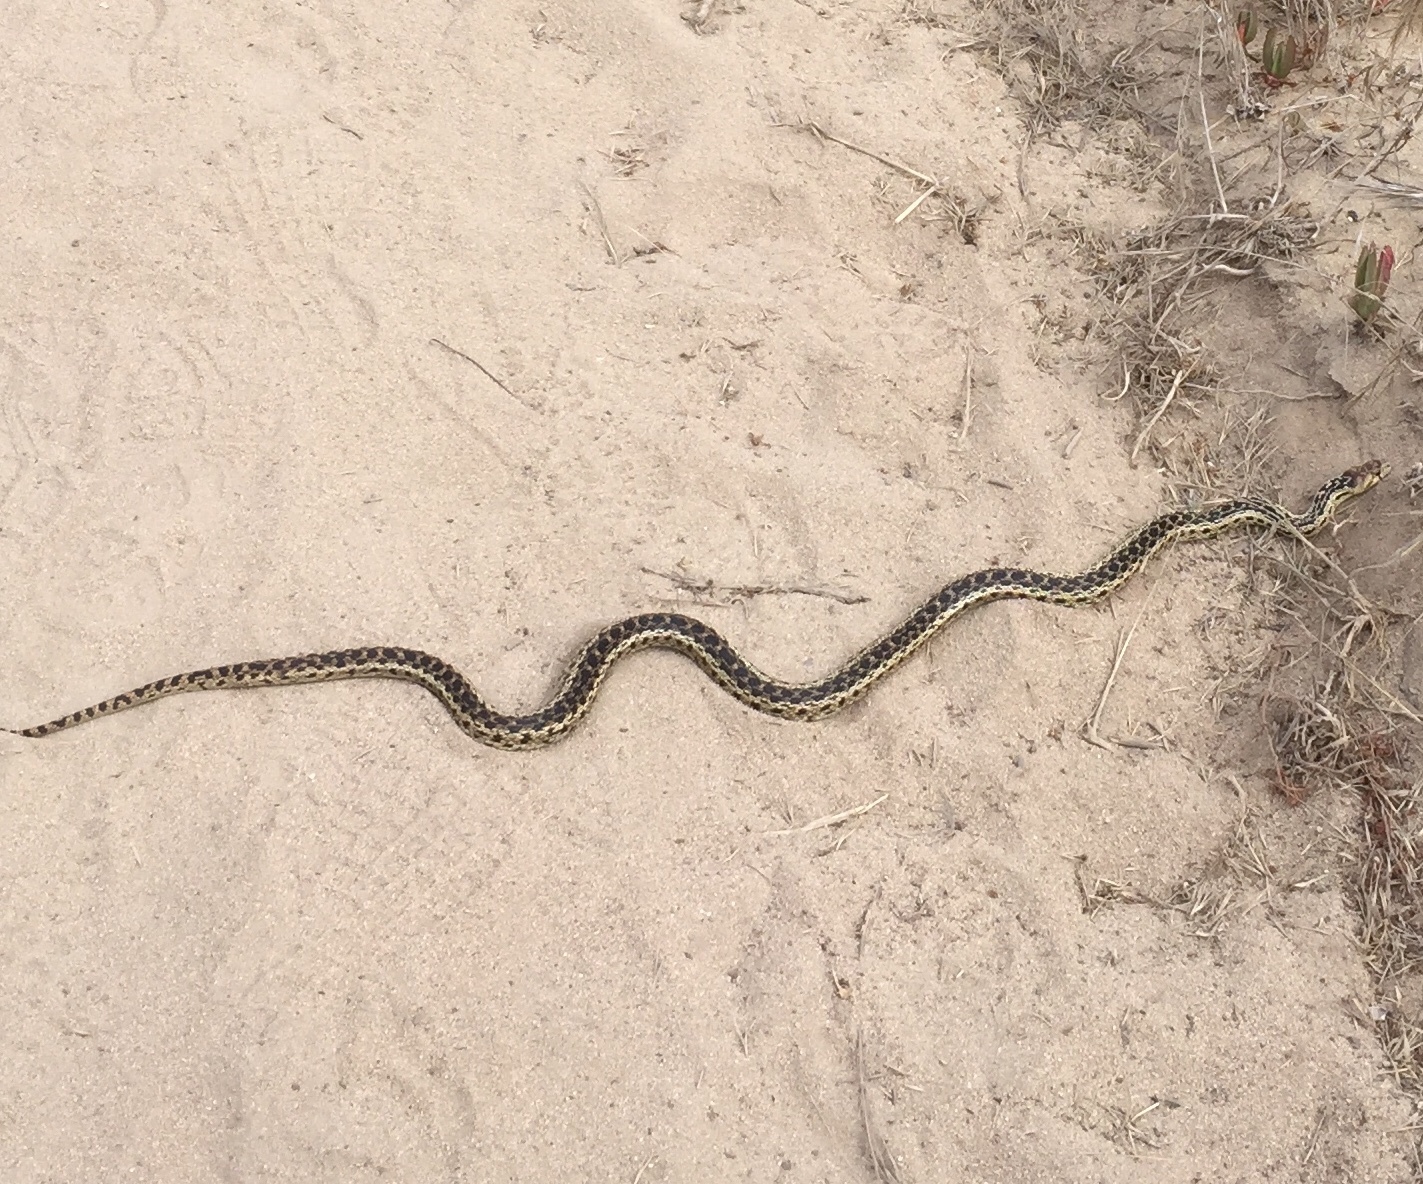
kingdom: Animalia
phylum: Chordata
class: Squamata
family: Colubridae
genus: Pituophis
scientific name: Pituophis catenifer
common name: Gopher snake
